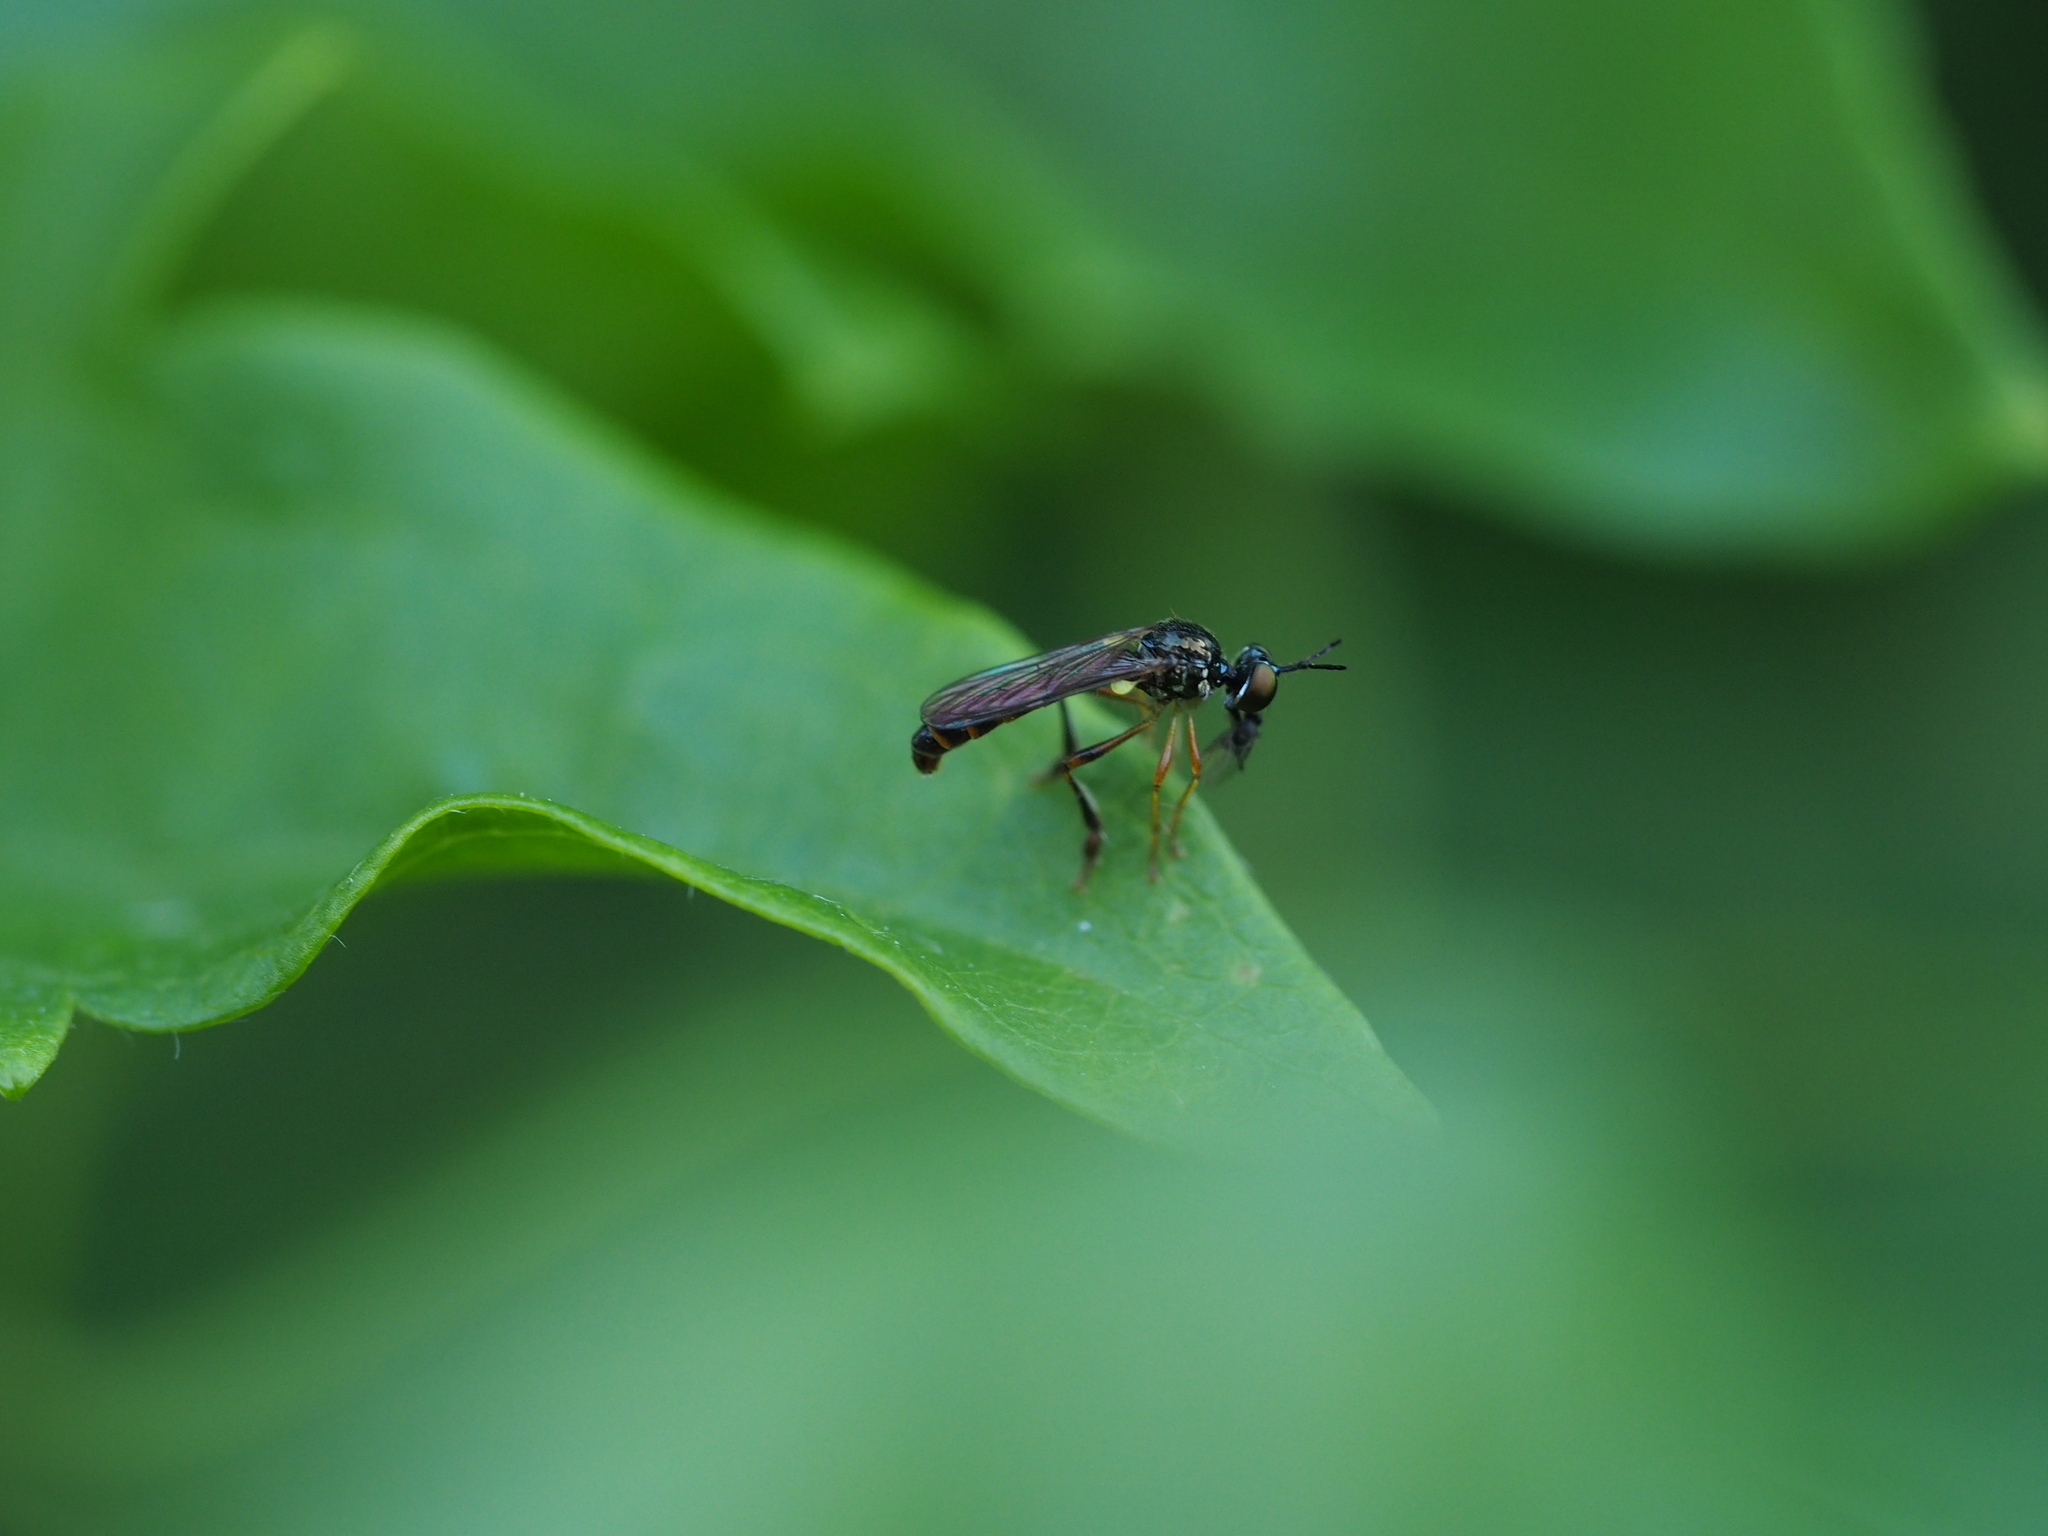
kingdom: Animalia
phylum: Arthropoda
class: Insecta
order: Diptera
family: Asilidae
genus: Dioctria
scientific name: Dioctria lateralis
